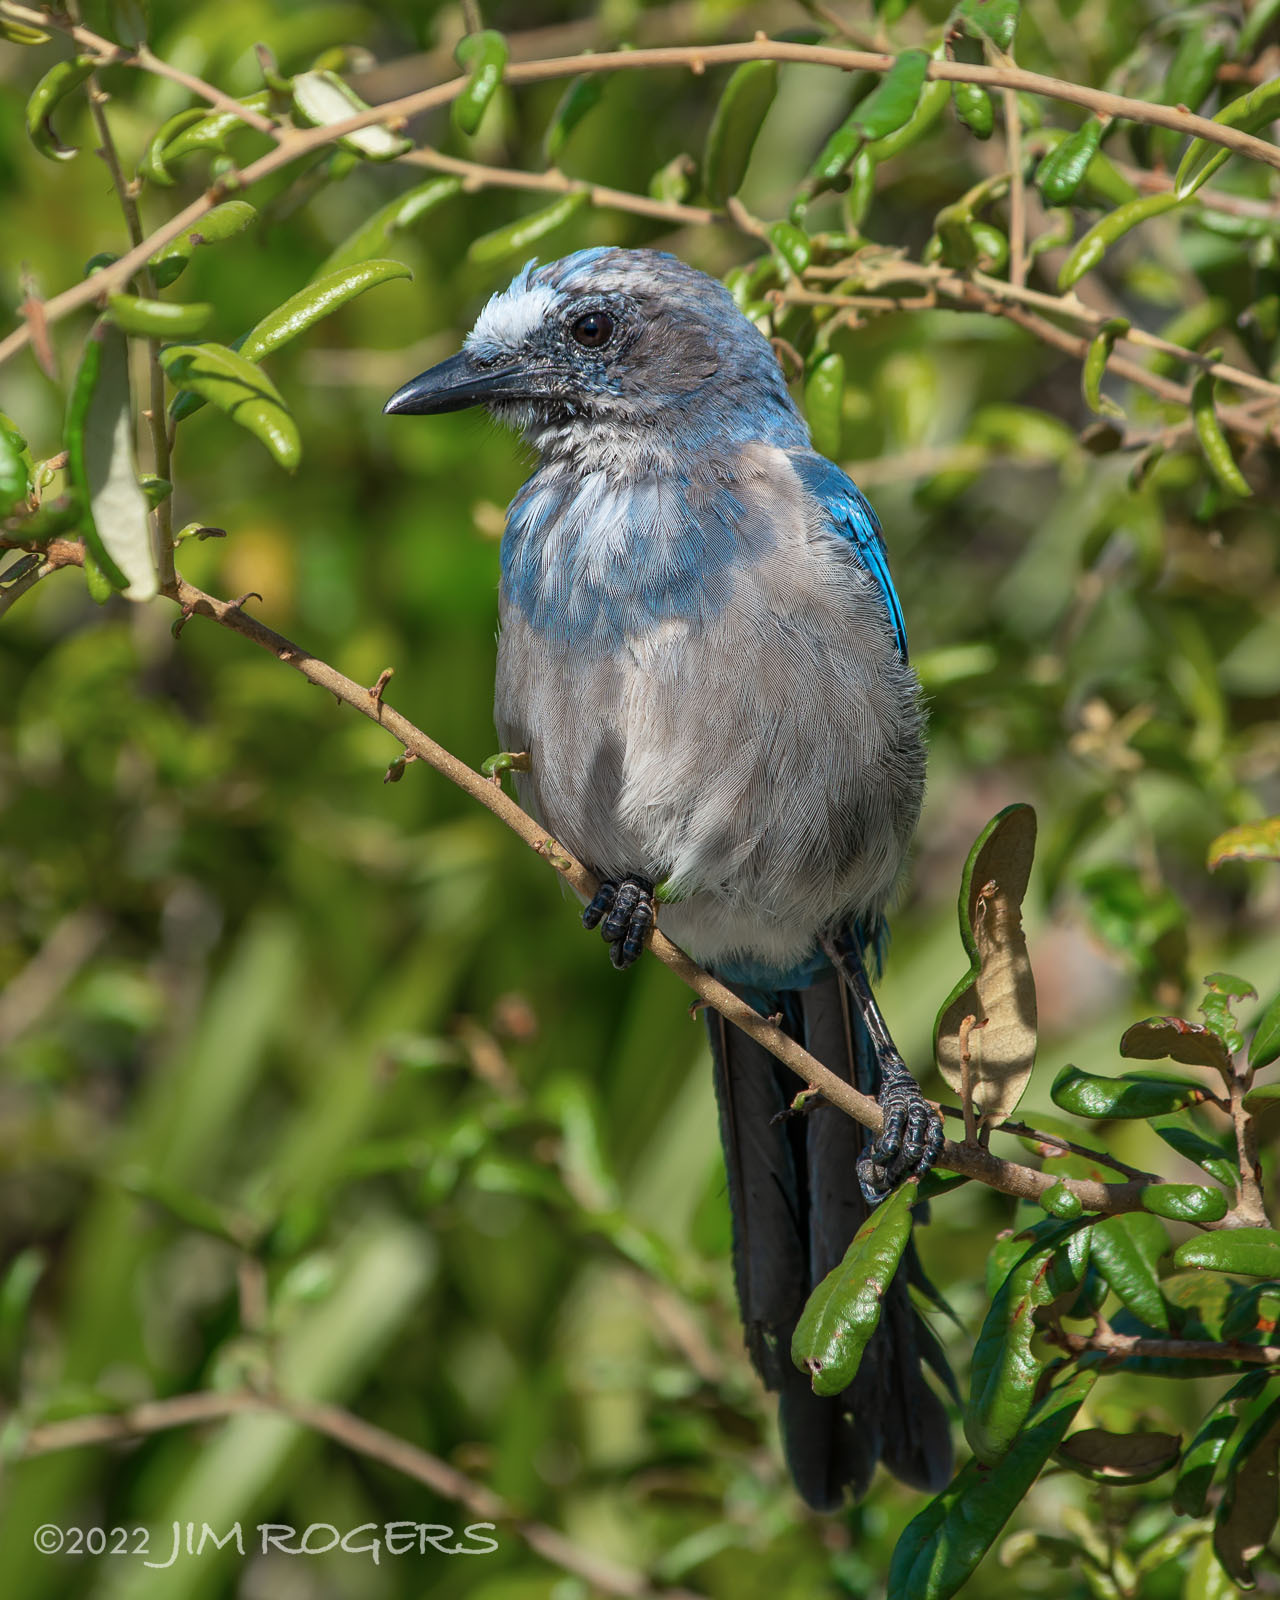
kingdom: Animalia
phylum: Chordata
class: Aves
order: Passeriformes
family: Corvidae
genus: Aphelocoma
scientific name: Aphelocoma coerulescens
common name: Florida scrub jay
